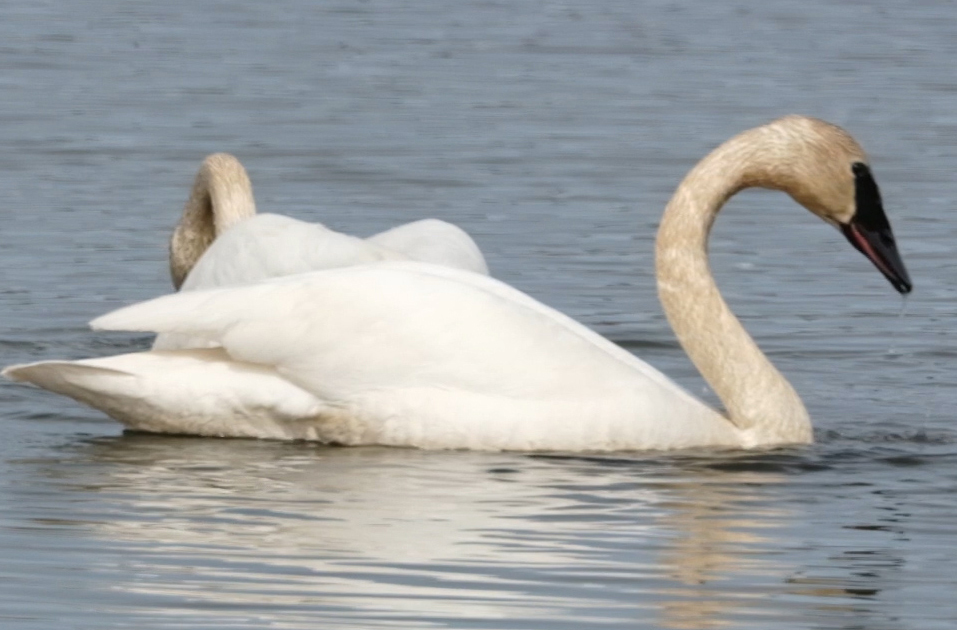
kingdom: Animalia
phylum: Chordata
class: Aves
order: Anseriformes
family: Anatidae
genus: Cygnus
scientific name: Cygnus buccinator
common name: Trumpeter swan
